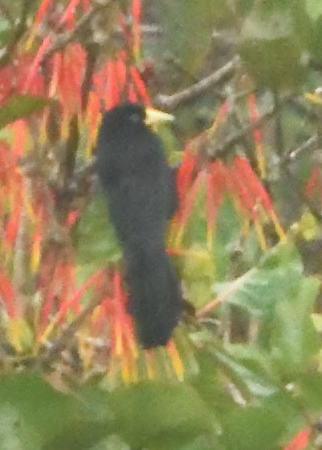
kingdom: Animalia
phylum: Chordata
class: Aves
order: Passeriformes
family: Icteridae
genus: Cacicus
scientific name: Cacicus uropygialis
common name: Scarlet-rumped cacique
